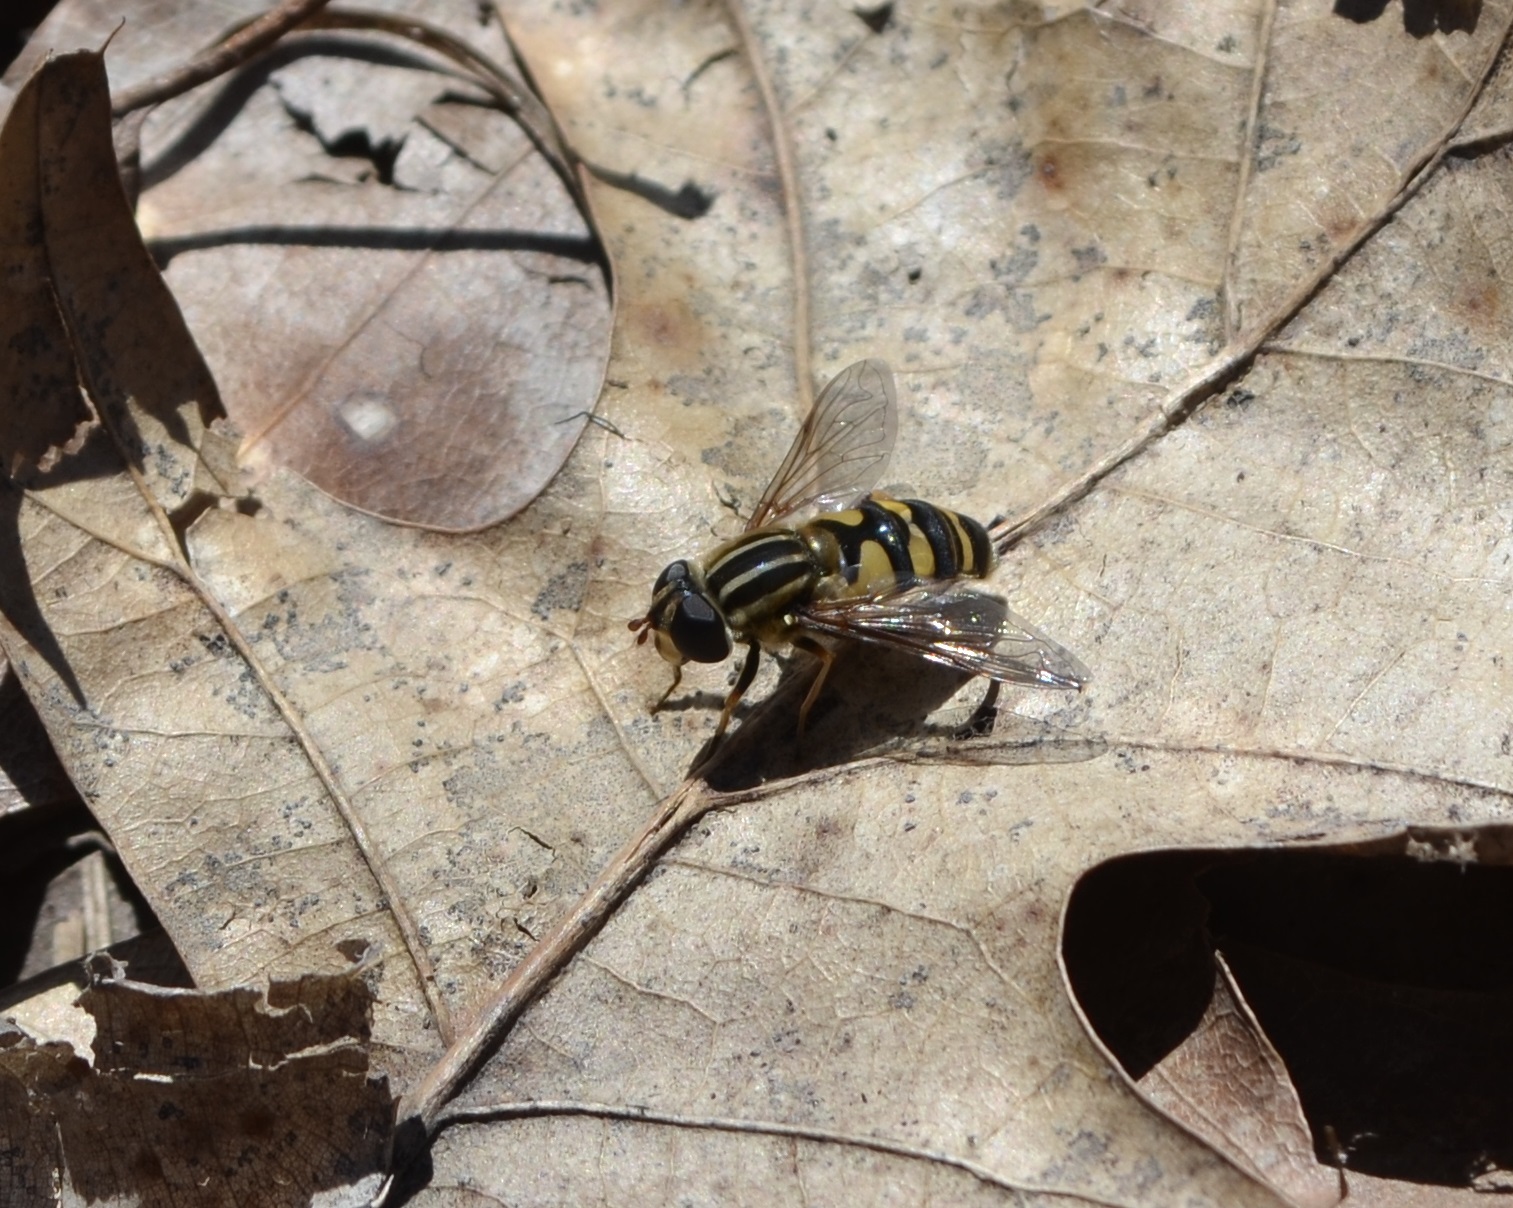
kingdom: Animalia
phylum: Arthropoda
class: Insecta
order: Diptera
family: Syrphidae
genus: Helophilus
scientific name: Helophilus fasciatus
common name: Narrow-headed marsh fly
